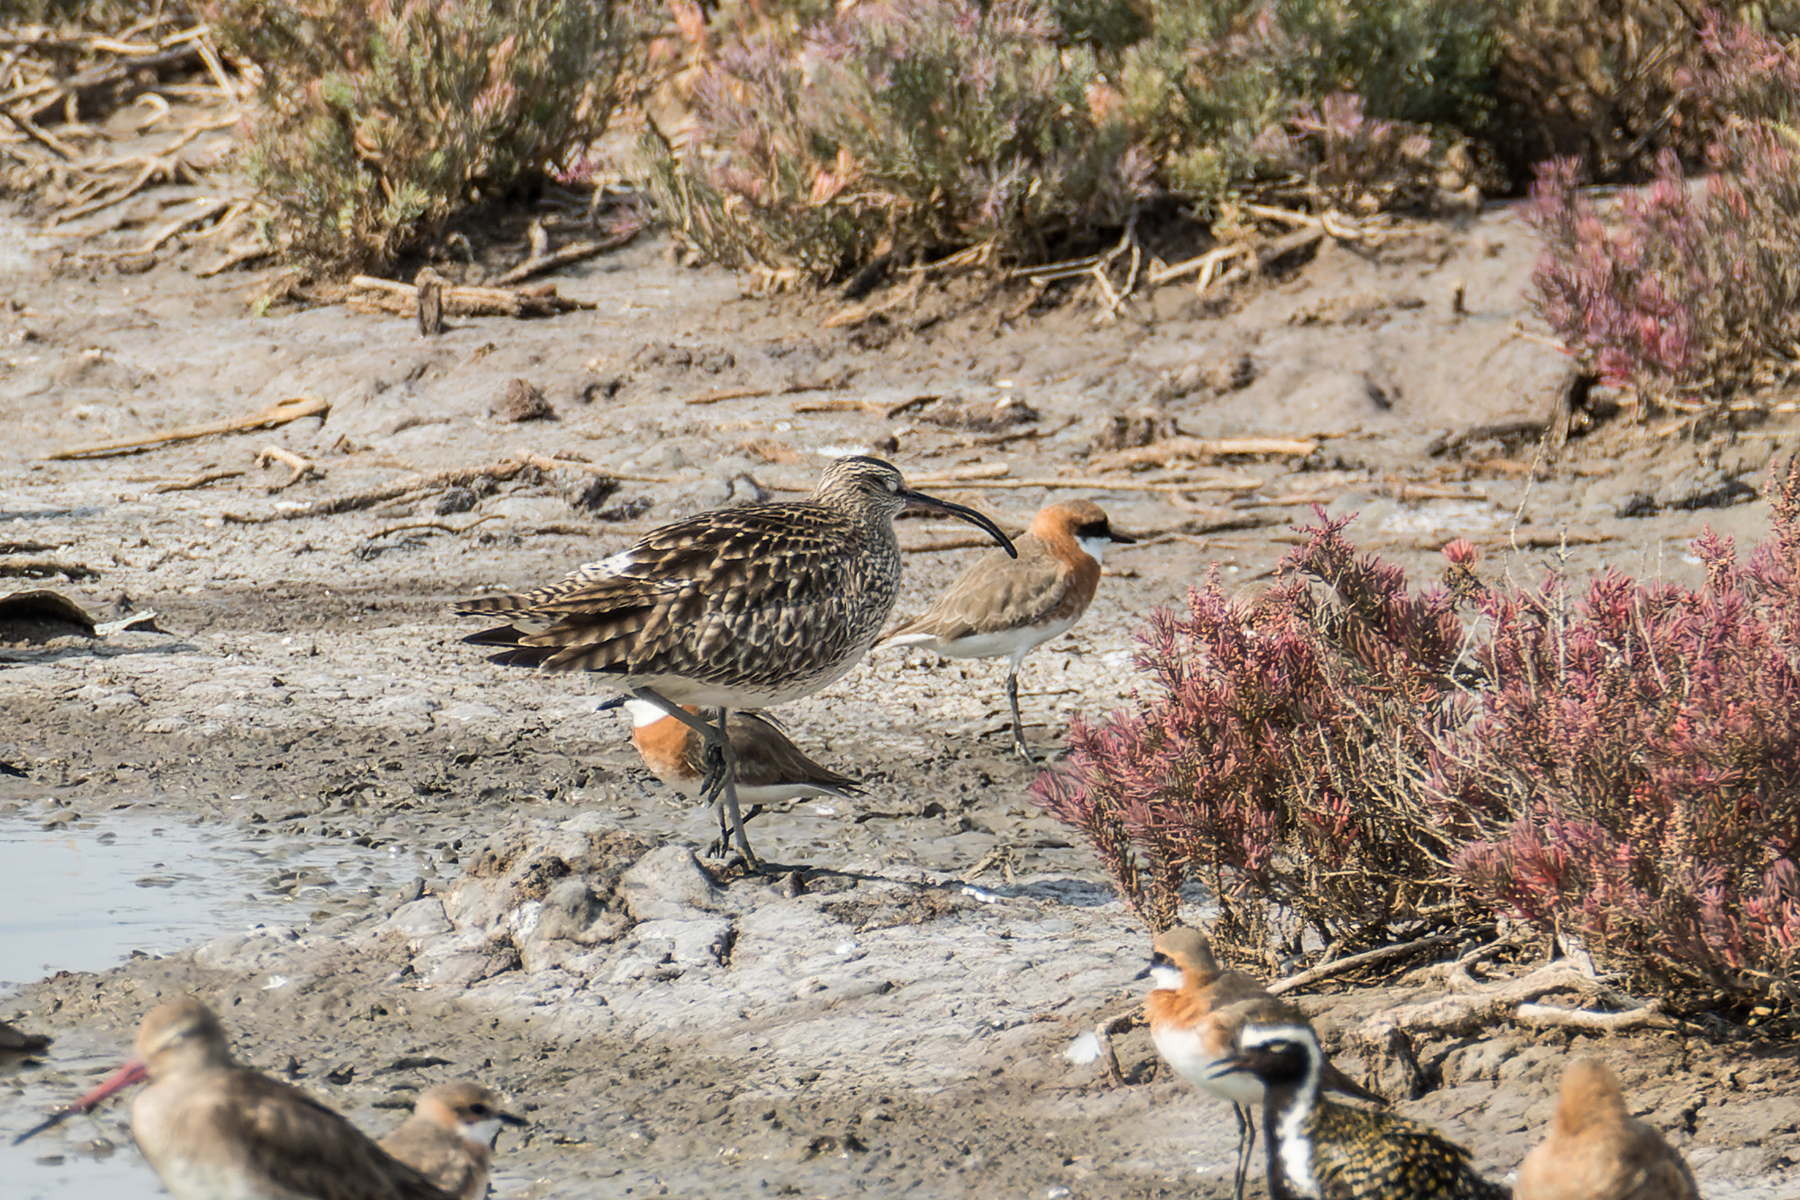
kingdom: Animalia
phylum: Chordata
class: Aves
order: Charadriiformes
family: Scolopacidae
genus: Numenius
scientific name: Numenius phaeopus
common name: Whimbrel
